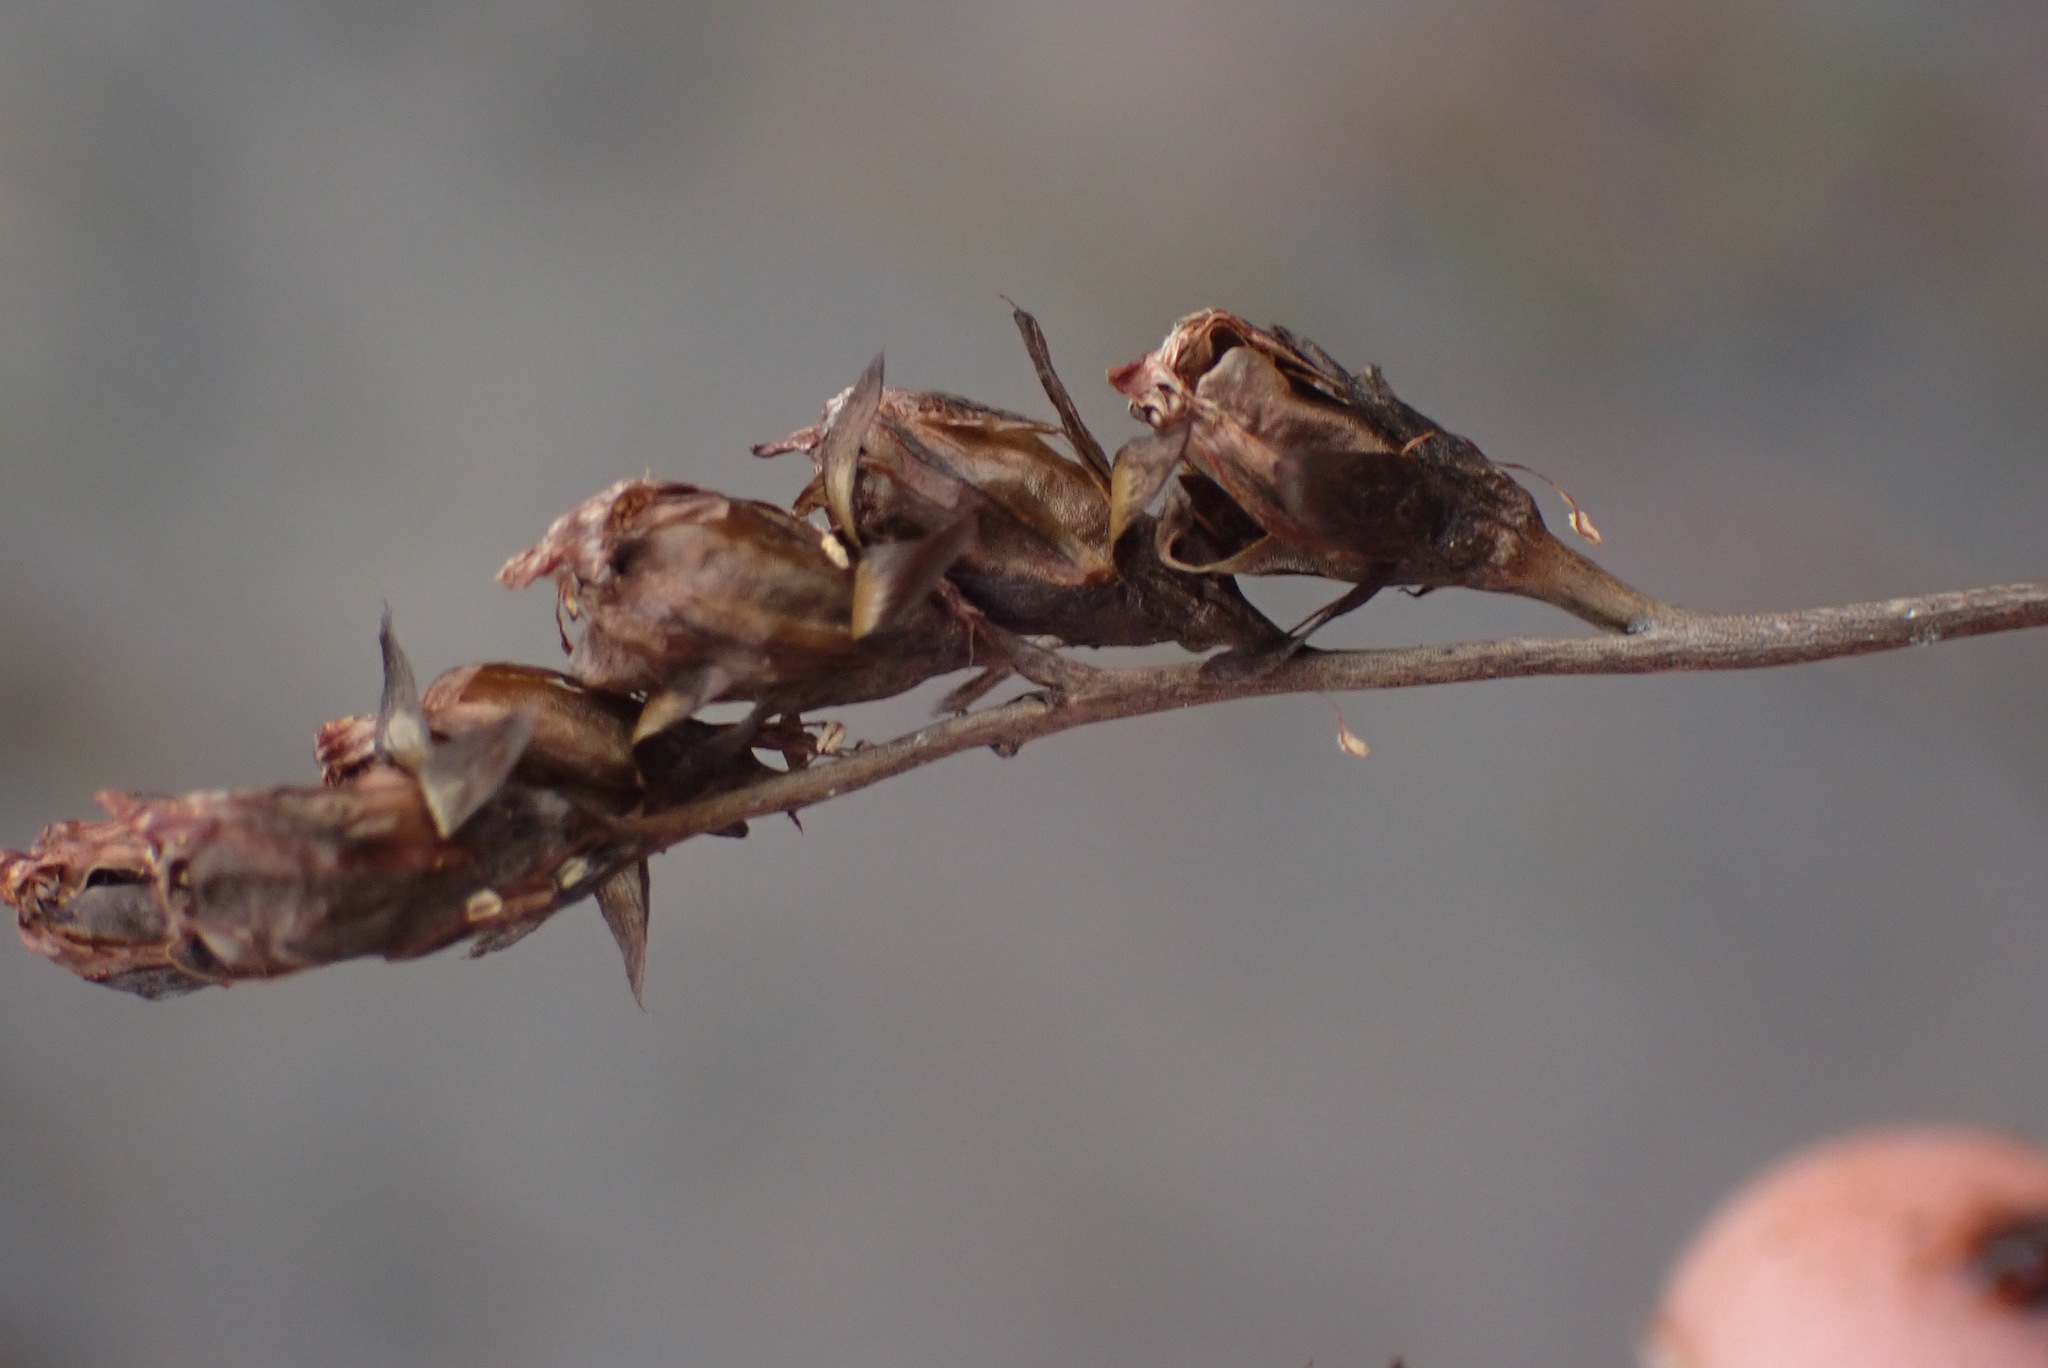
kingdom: Plantae
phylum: Tracheophyta
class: Magnoliopsida
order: Caryophyllales
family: Droseraceae
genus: Drosera
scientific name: Drosera anglica
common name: Great sundew
